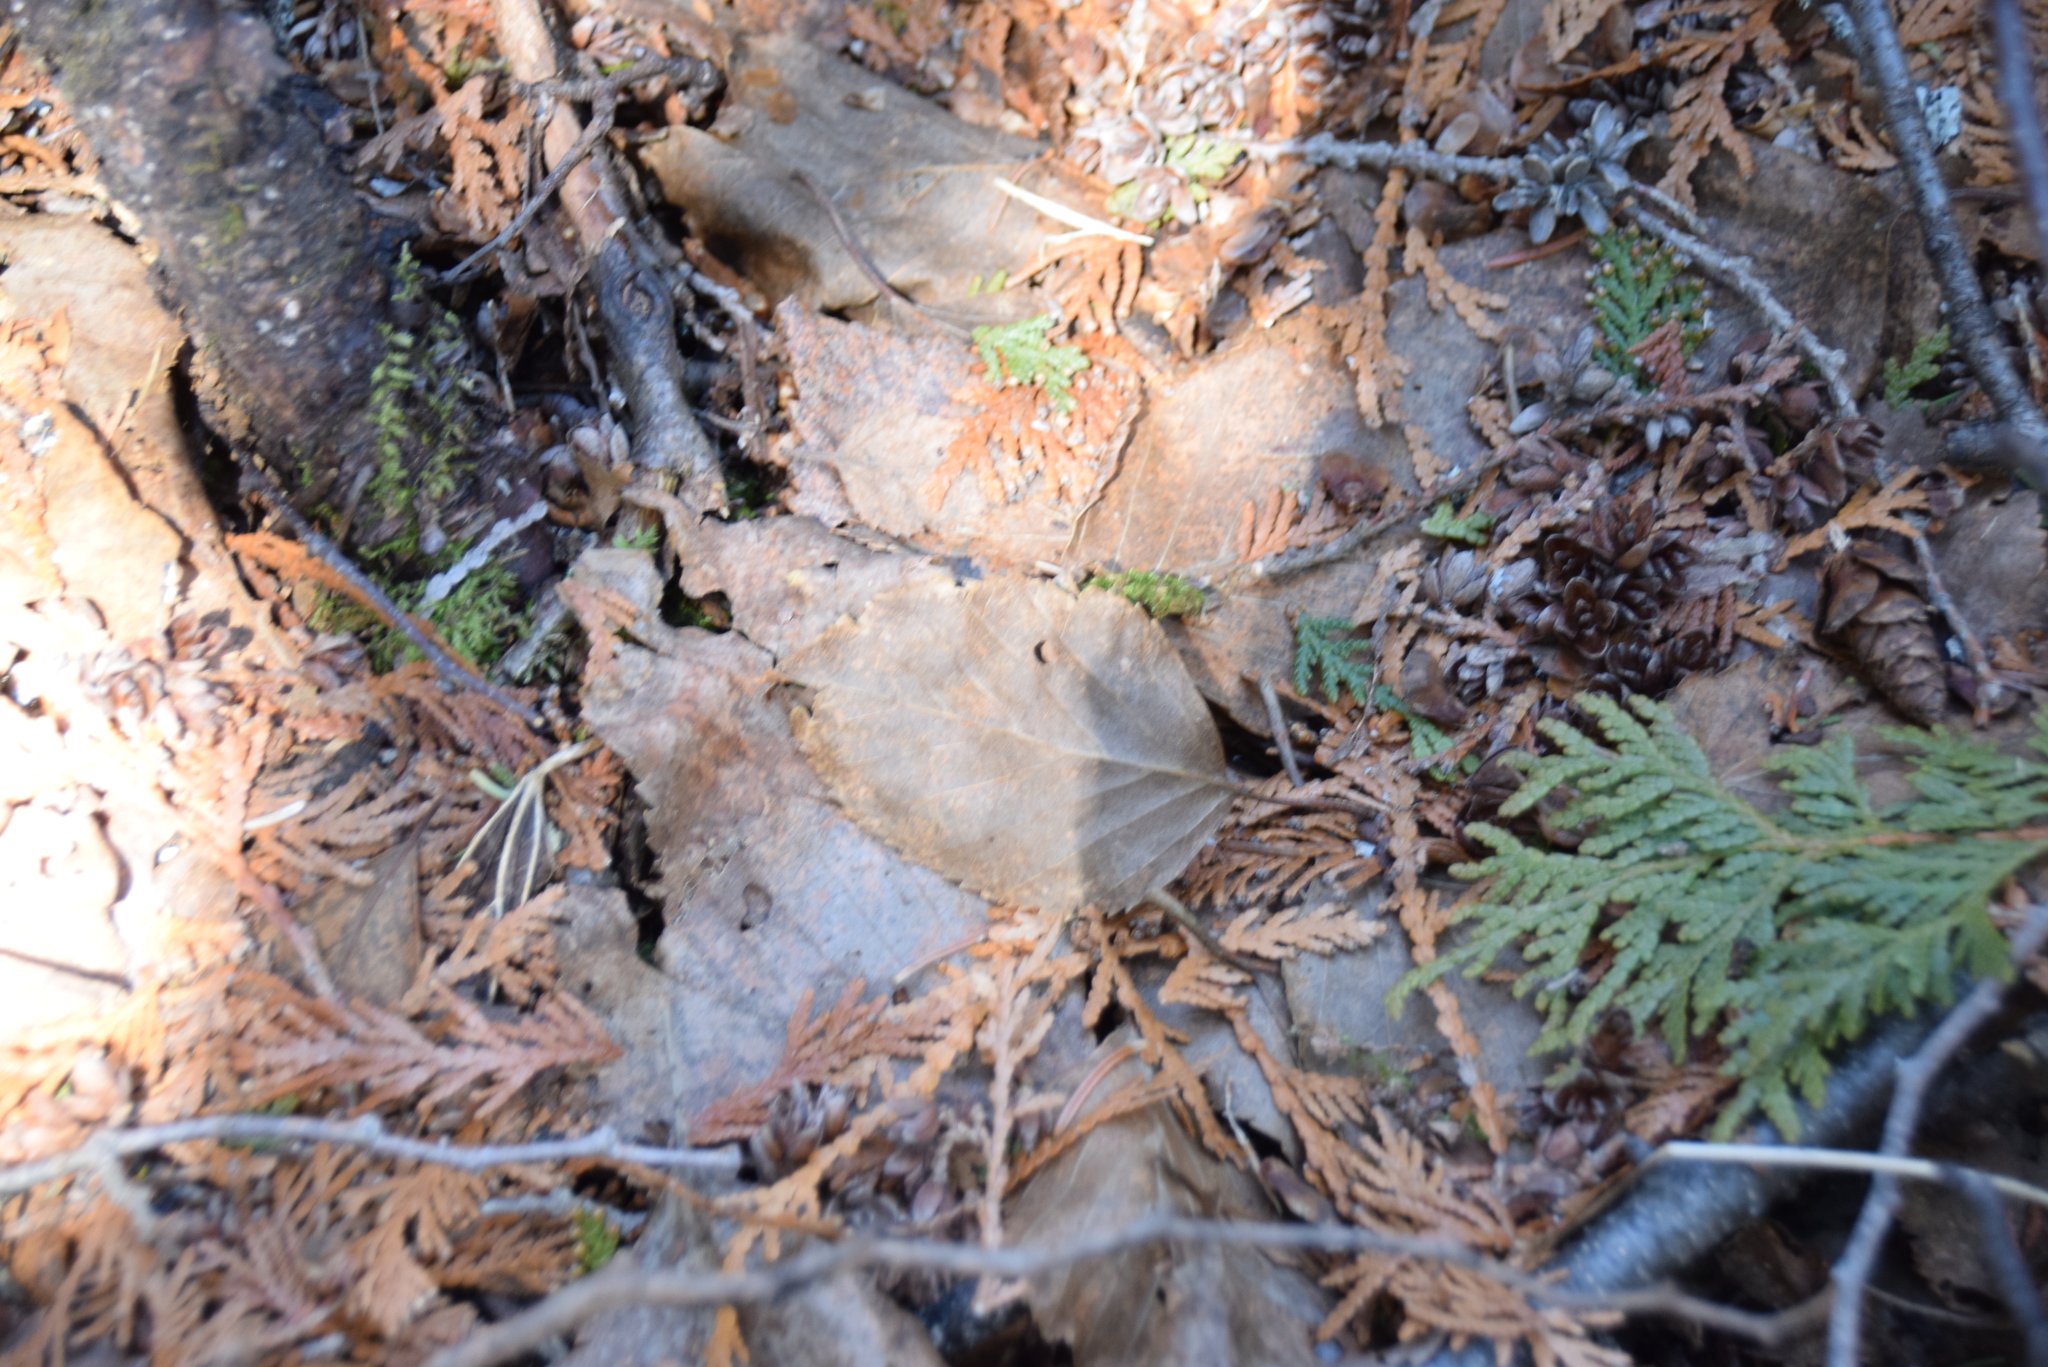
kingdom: Plantae
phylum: Tracheophyta
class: Magnoliopsida
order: Fagales
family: Betulaceae
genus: Betula
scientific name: Betula papyrifera
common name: Paper birch
